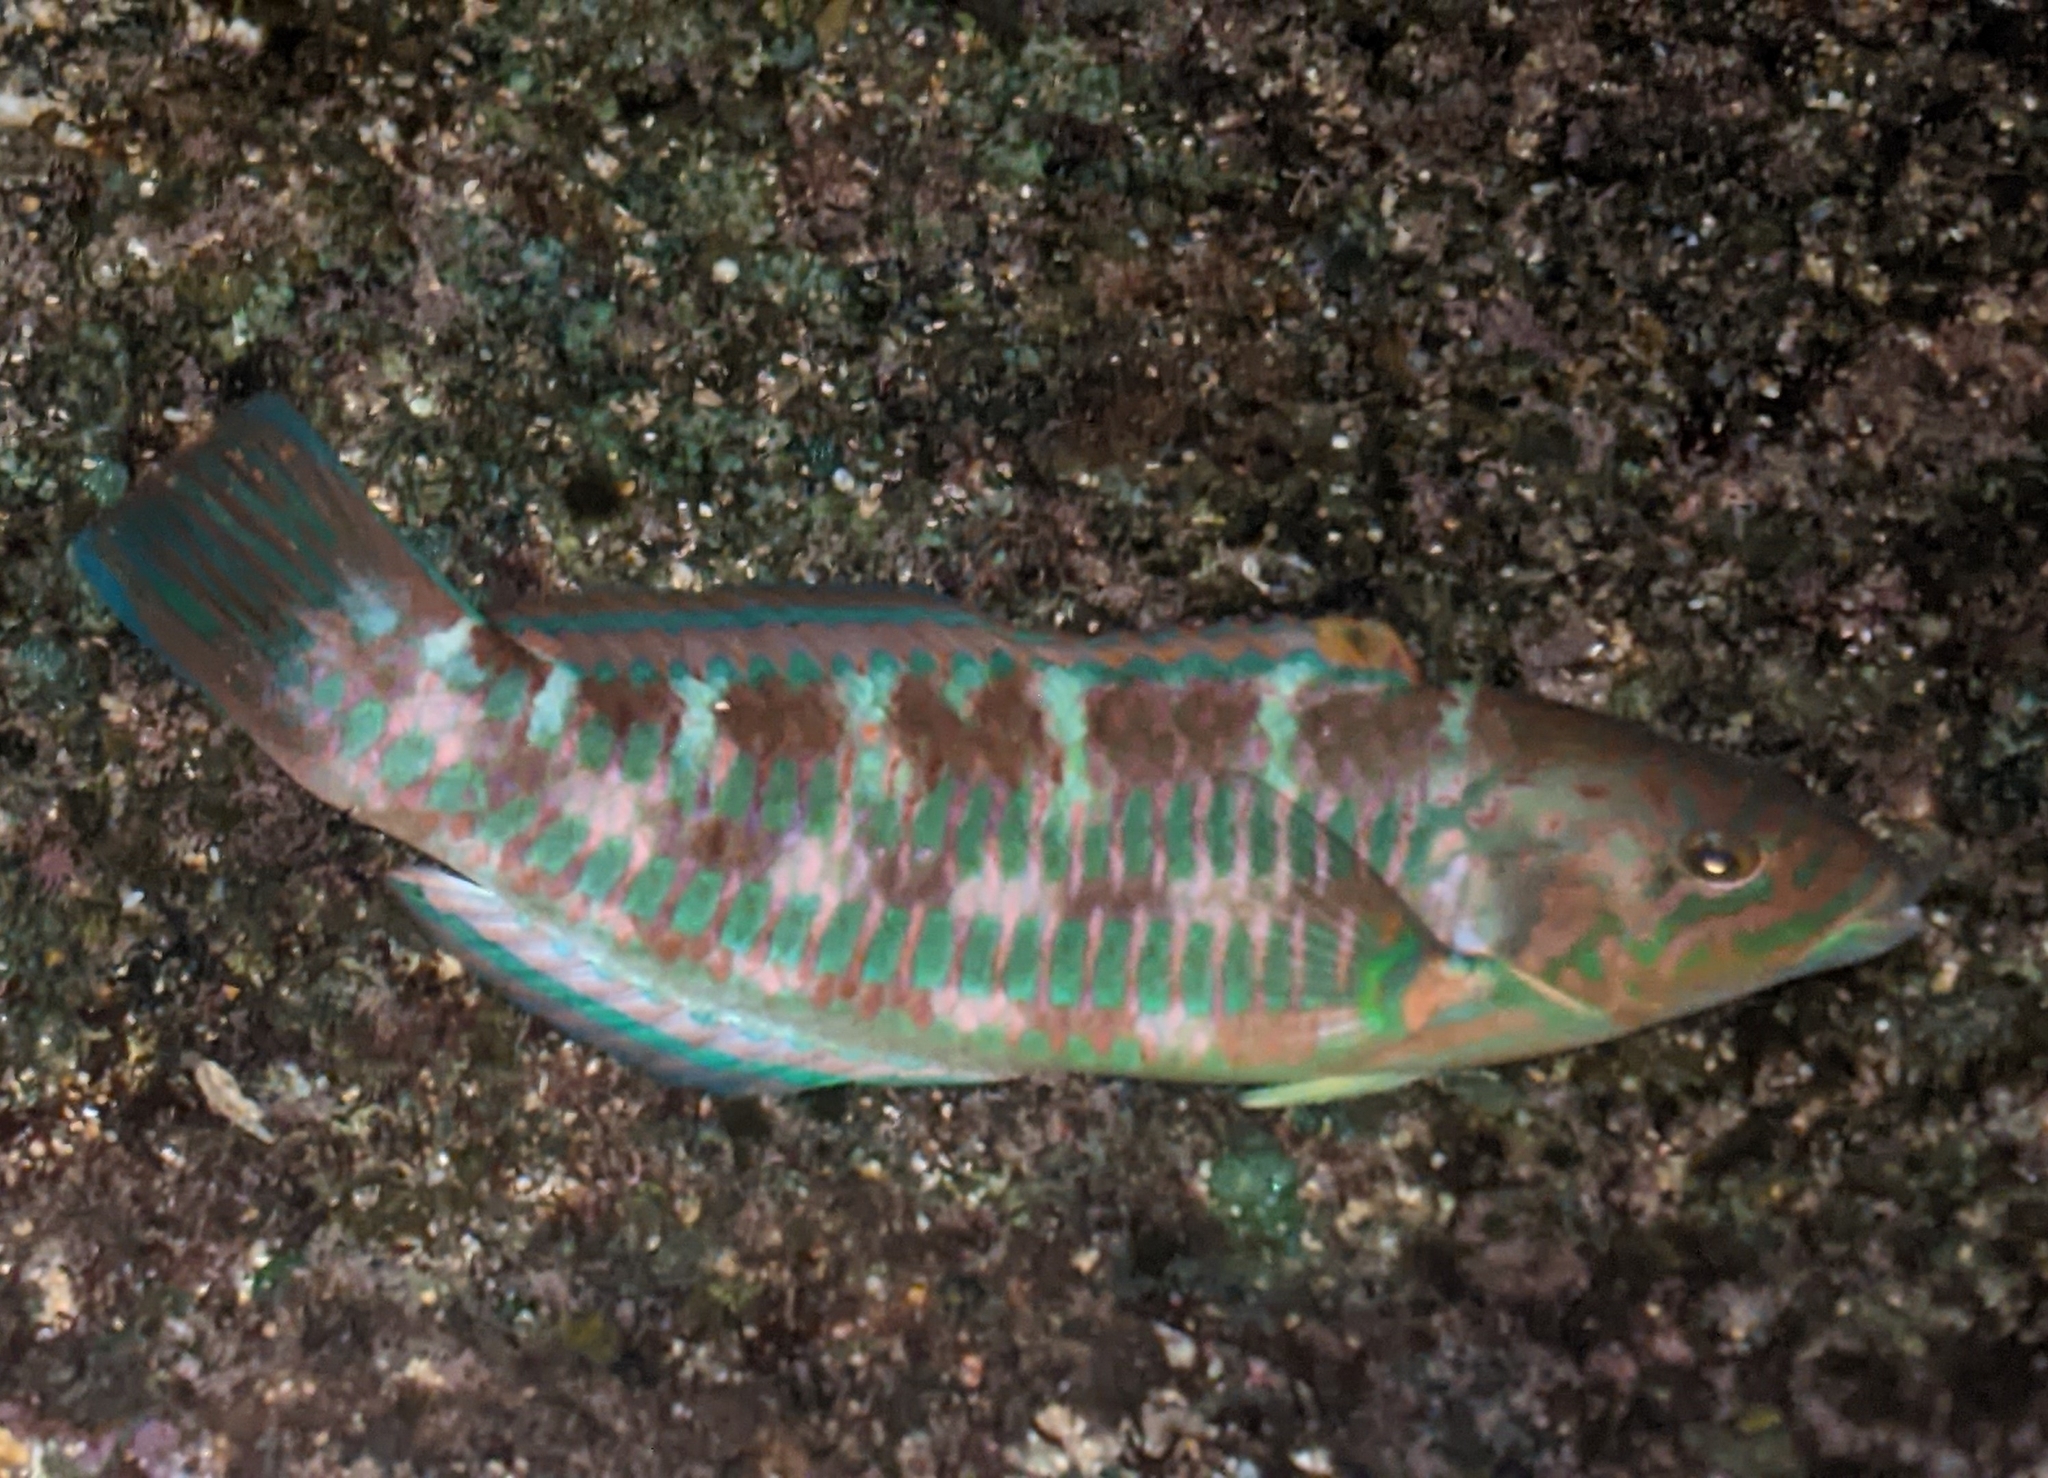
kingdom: Animalia
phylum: Chordata
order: Perciformes
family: Labridae
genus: Thalassoma
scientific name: Thalassoma trilobatum
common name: Christmas wrasse
